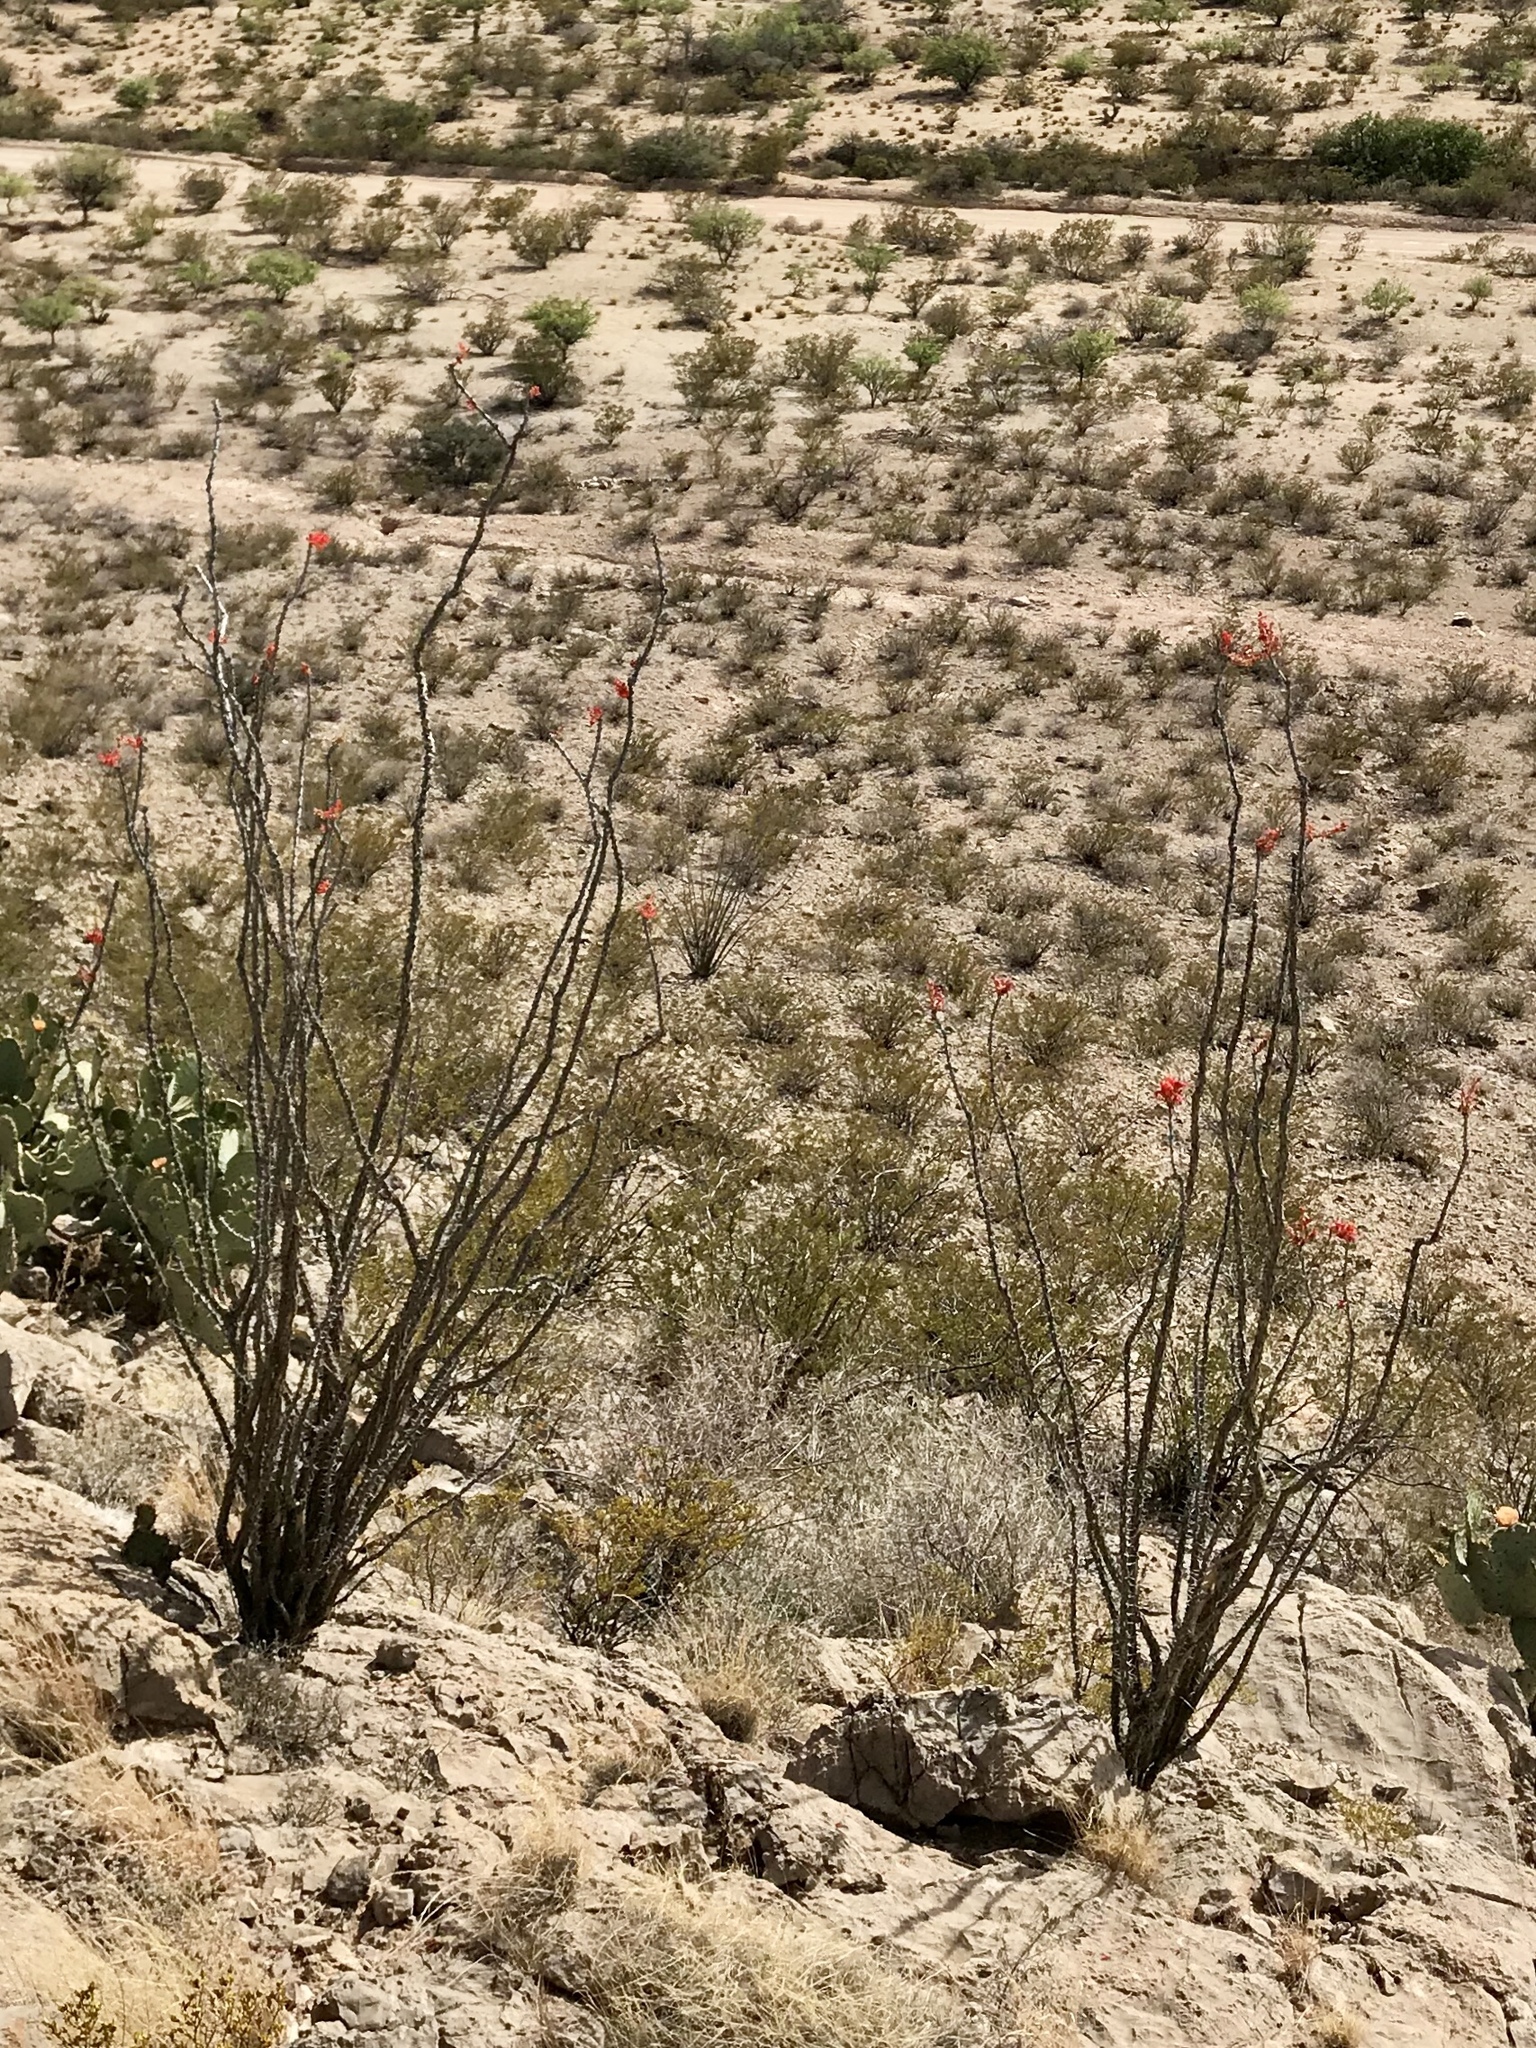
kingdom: Plantae
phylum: Tracheophyta
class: Magnoliopsida
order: Ericales
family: Fouquieriaceae
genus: Fouquieria
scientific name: Fouquieria splendens
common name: Vine-cactus
